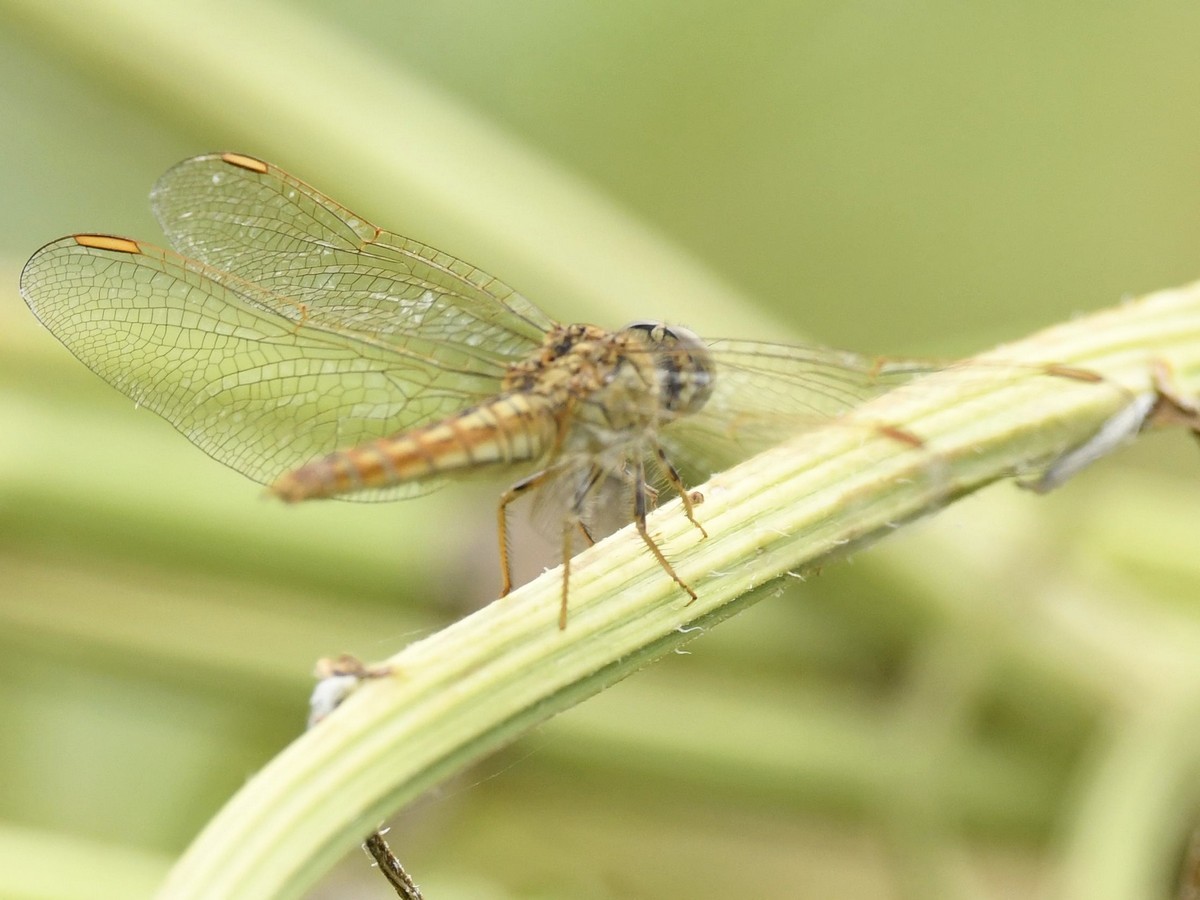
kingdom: Animalia
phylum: Arthropoda
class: Insecta
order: Odonata
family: Libellulidae
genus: Brachythemis
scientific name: Brachythemis contaminata
